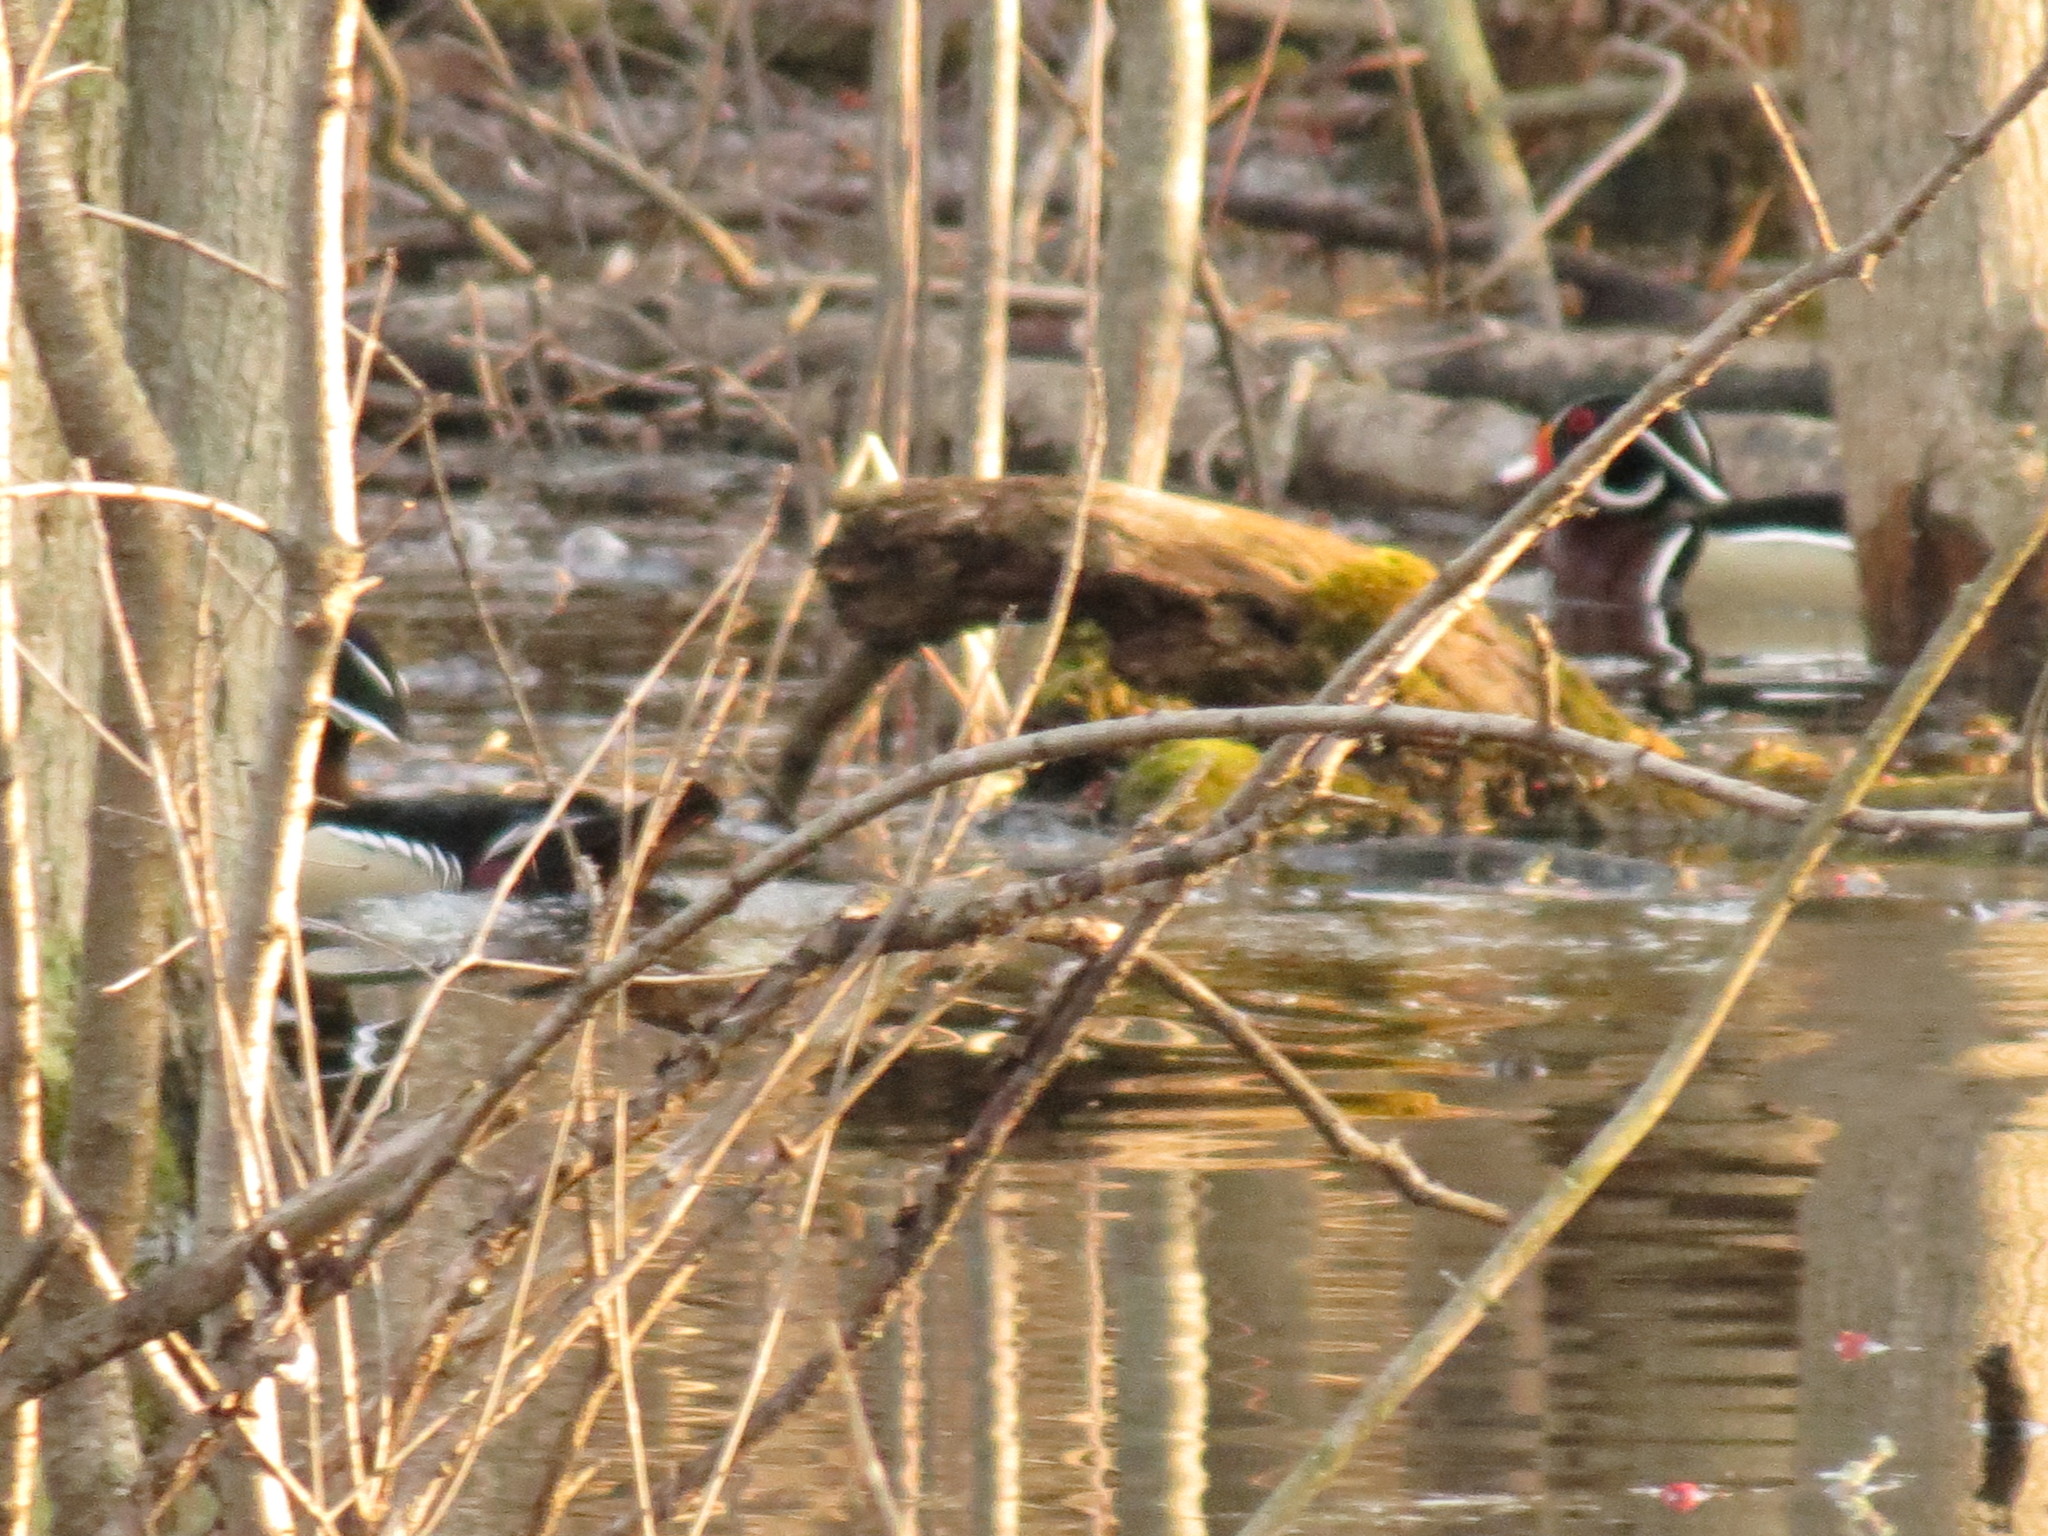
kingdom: Animalia
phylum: Chordata
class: Aves
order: Anseriformes
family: Anatidae
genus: Aix
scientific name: Aix sponsa
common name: Wood duck
